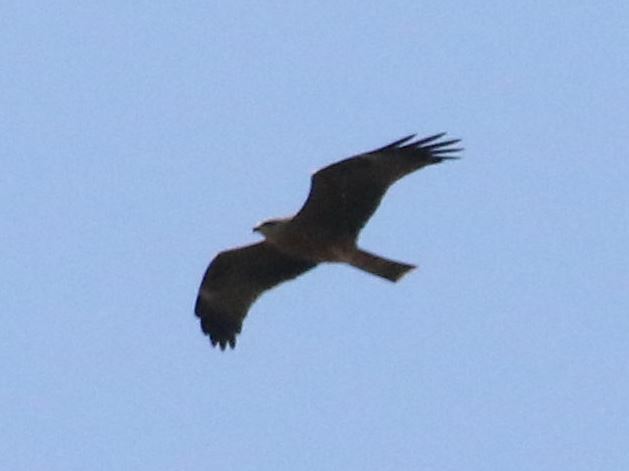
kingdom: Animalia
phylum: Chordata
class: Aves
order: Accipitriformes
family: Accipitridae
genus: Milvus
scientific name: Milvus migrans
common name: Black kite
